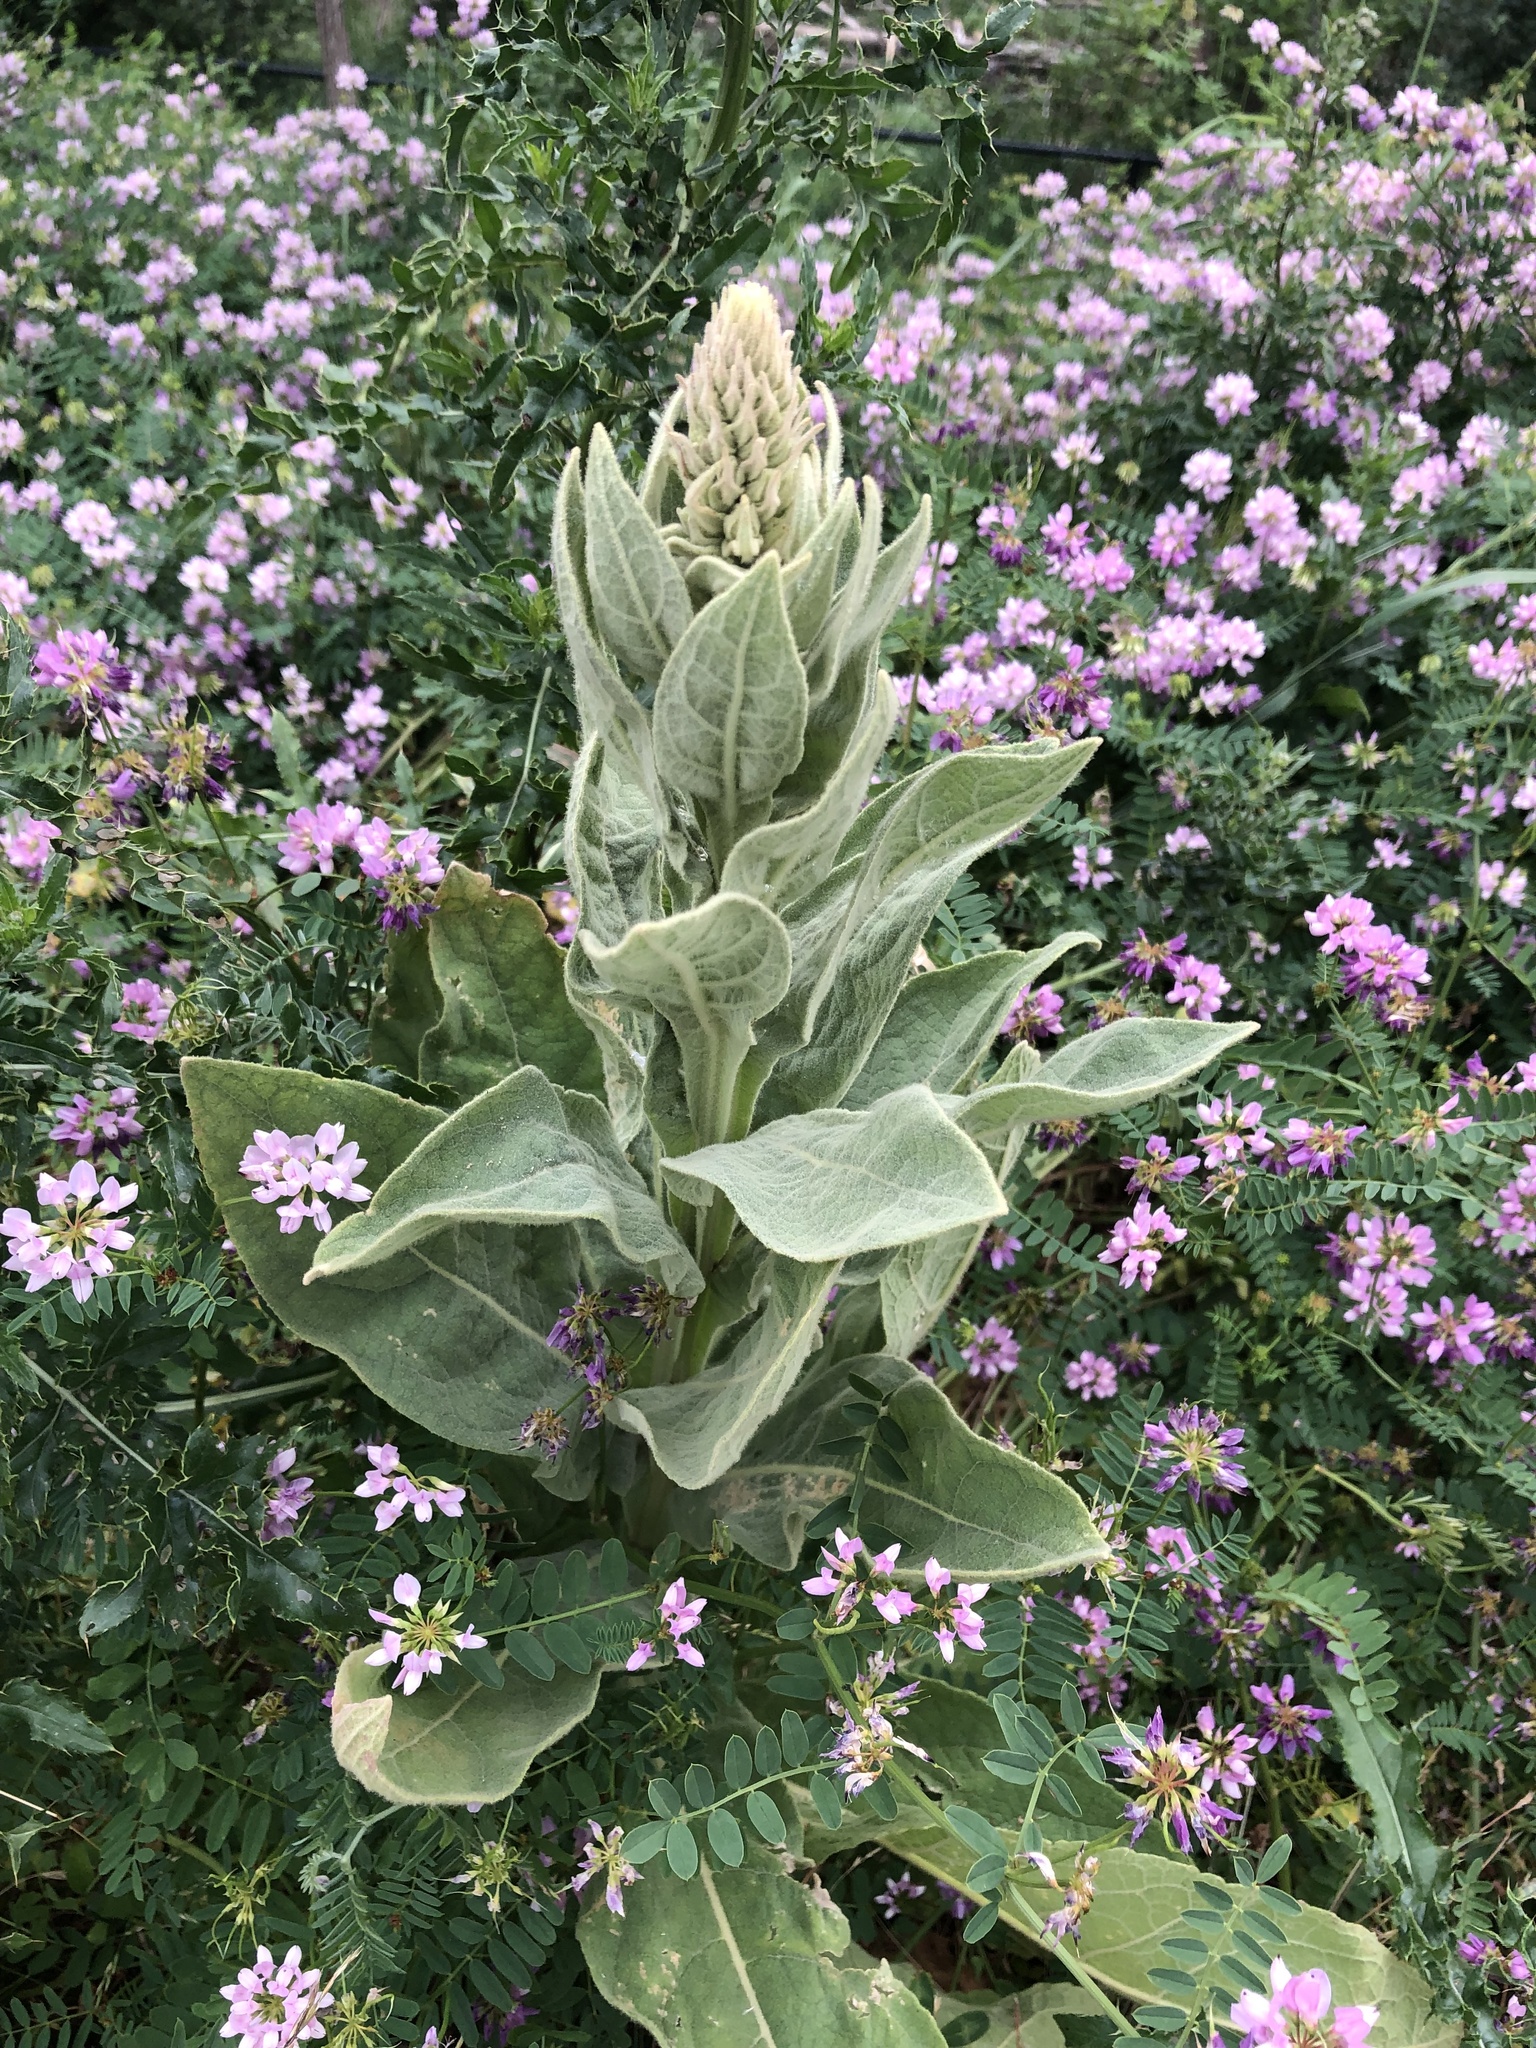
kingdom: Plantae
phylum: Tracheophyta
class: Magnoliopsida
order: Lamiales
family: Scrophulariaceae
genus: Verbascum
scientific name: Verbascum thapsus
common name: Common mullein
